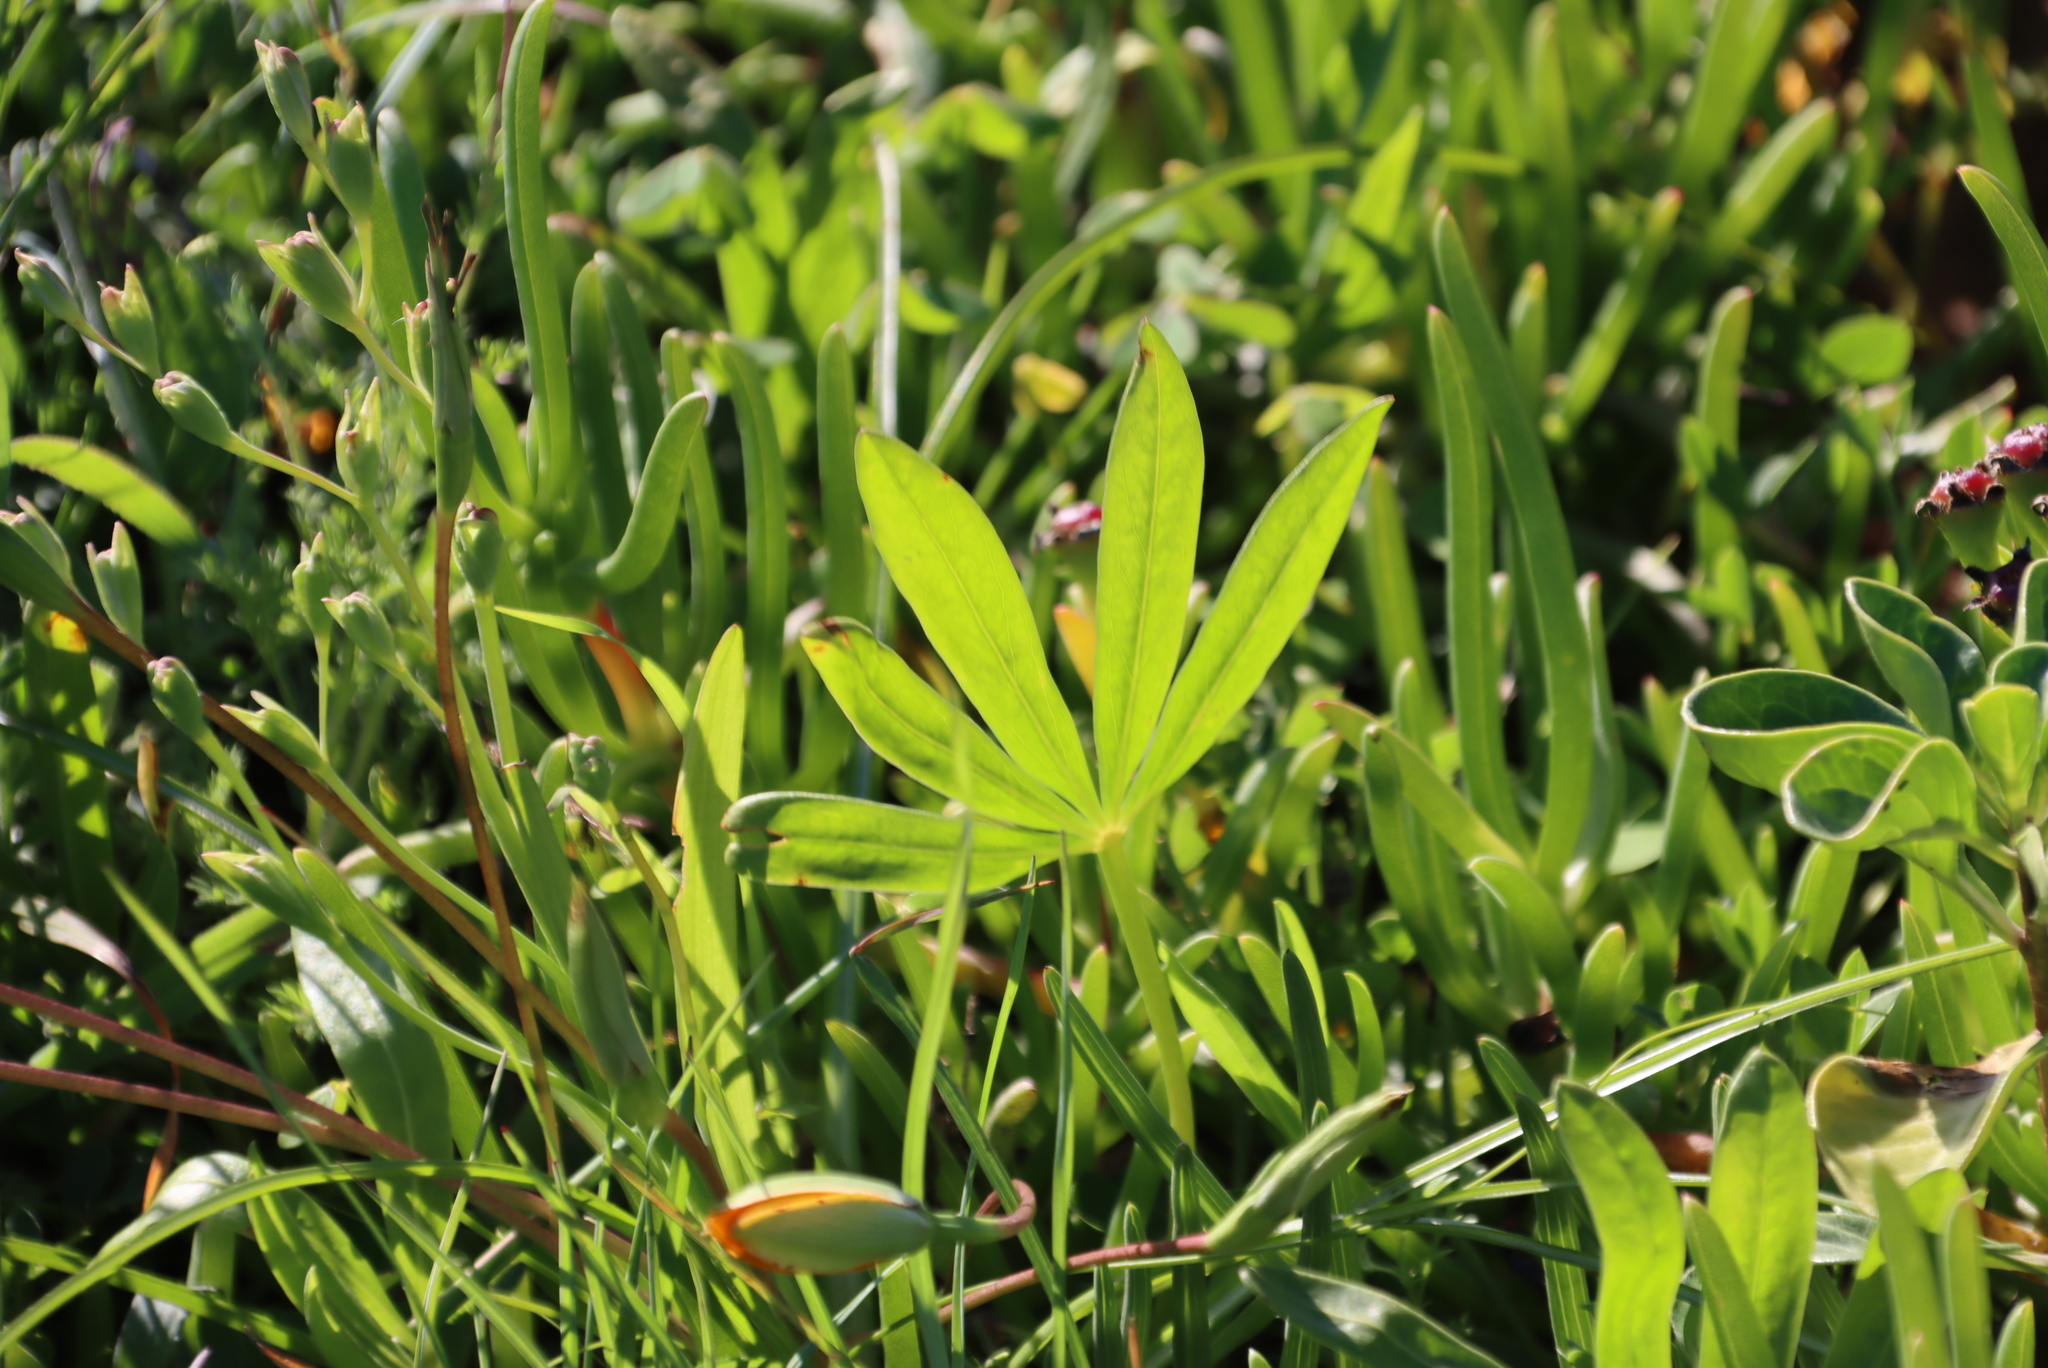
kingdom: Plantae
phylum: Tracheophyta
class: Magnoliopsida
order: Oxalidales
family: Oxalidaceae
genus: Oxalis
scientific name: Oxalis flava
